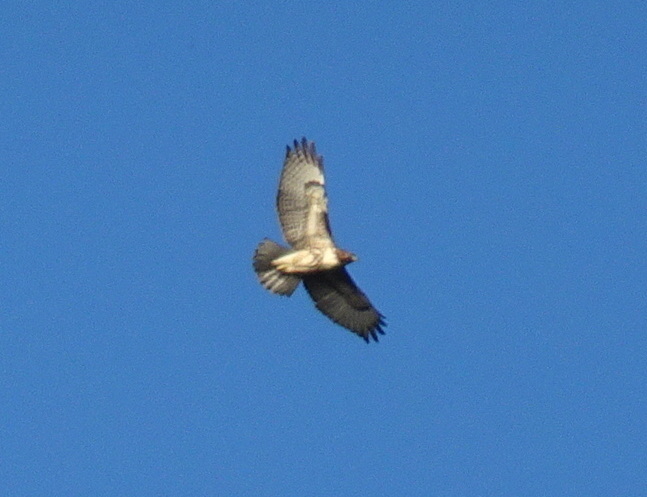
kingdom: Animalia
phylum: Chordata
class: Aves
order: Accipitriformes
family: Accipitridae
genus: Buteo
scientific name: Buteo jamaicensis
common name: Red-tailed hawk
